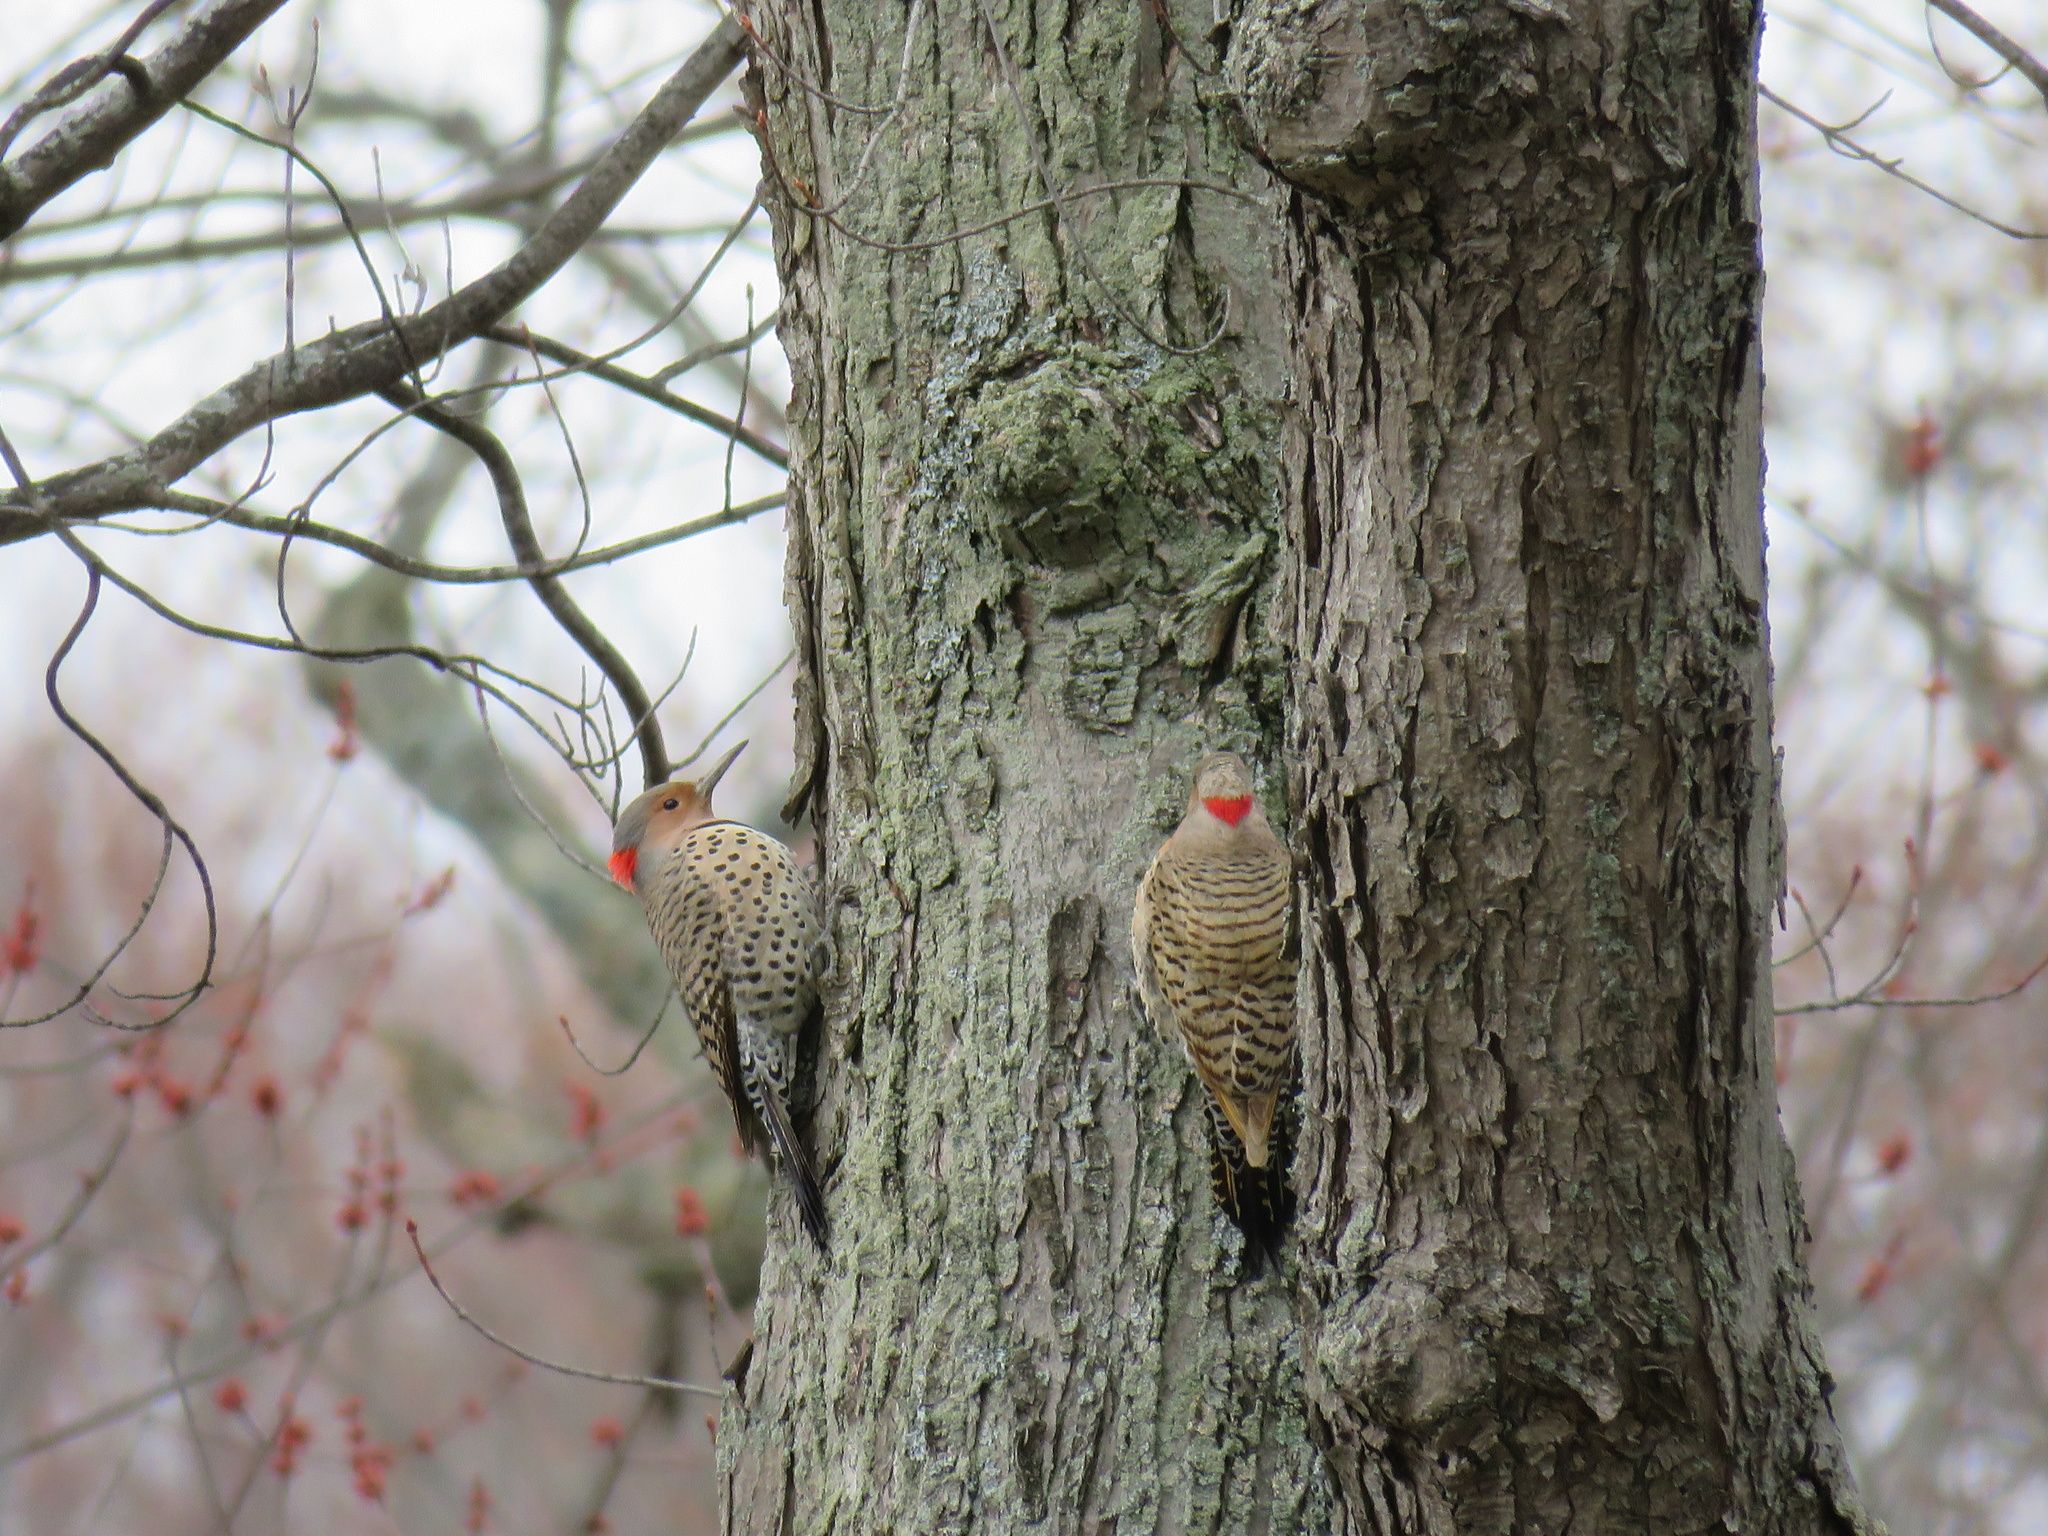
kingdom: Animalia
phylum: Chordata
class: Aves
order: Piciformes
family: Picidae
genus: Colaptes
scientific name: Colaptes auratus
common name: Northern flicker
